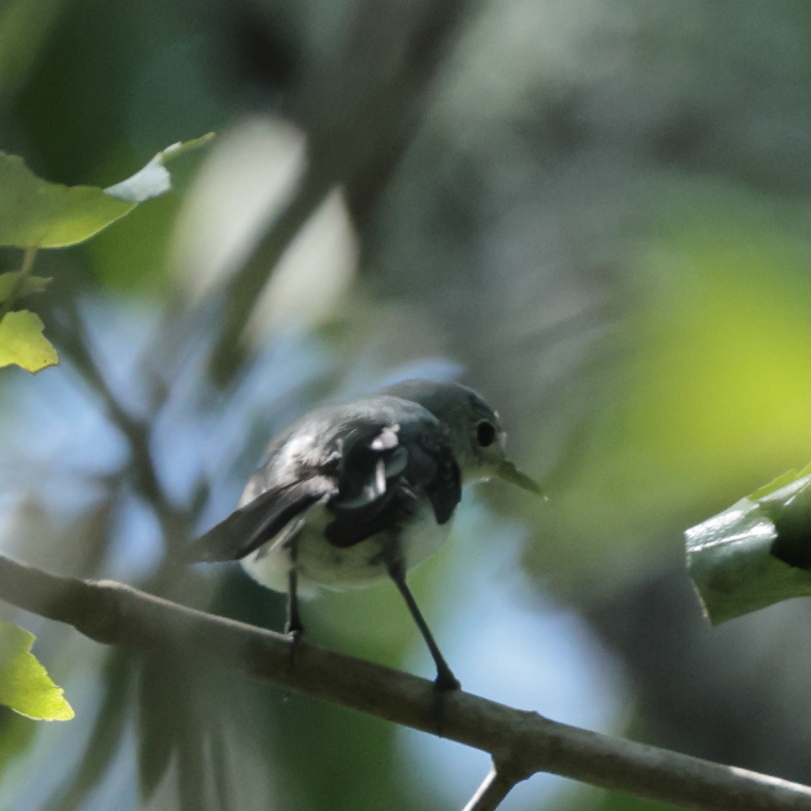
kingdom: Animalia
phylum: Chordata
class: Aves
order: Passeriformes
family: Polioptilidae
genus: Polioptila
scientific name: Polioptila caerulea
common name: Blue-gray gnatcatcher
